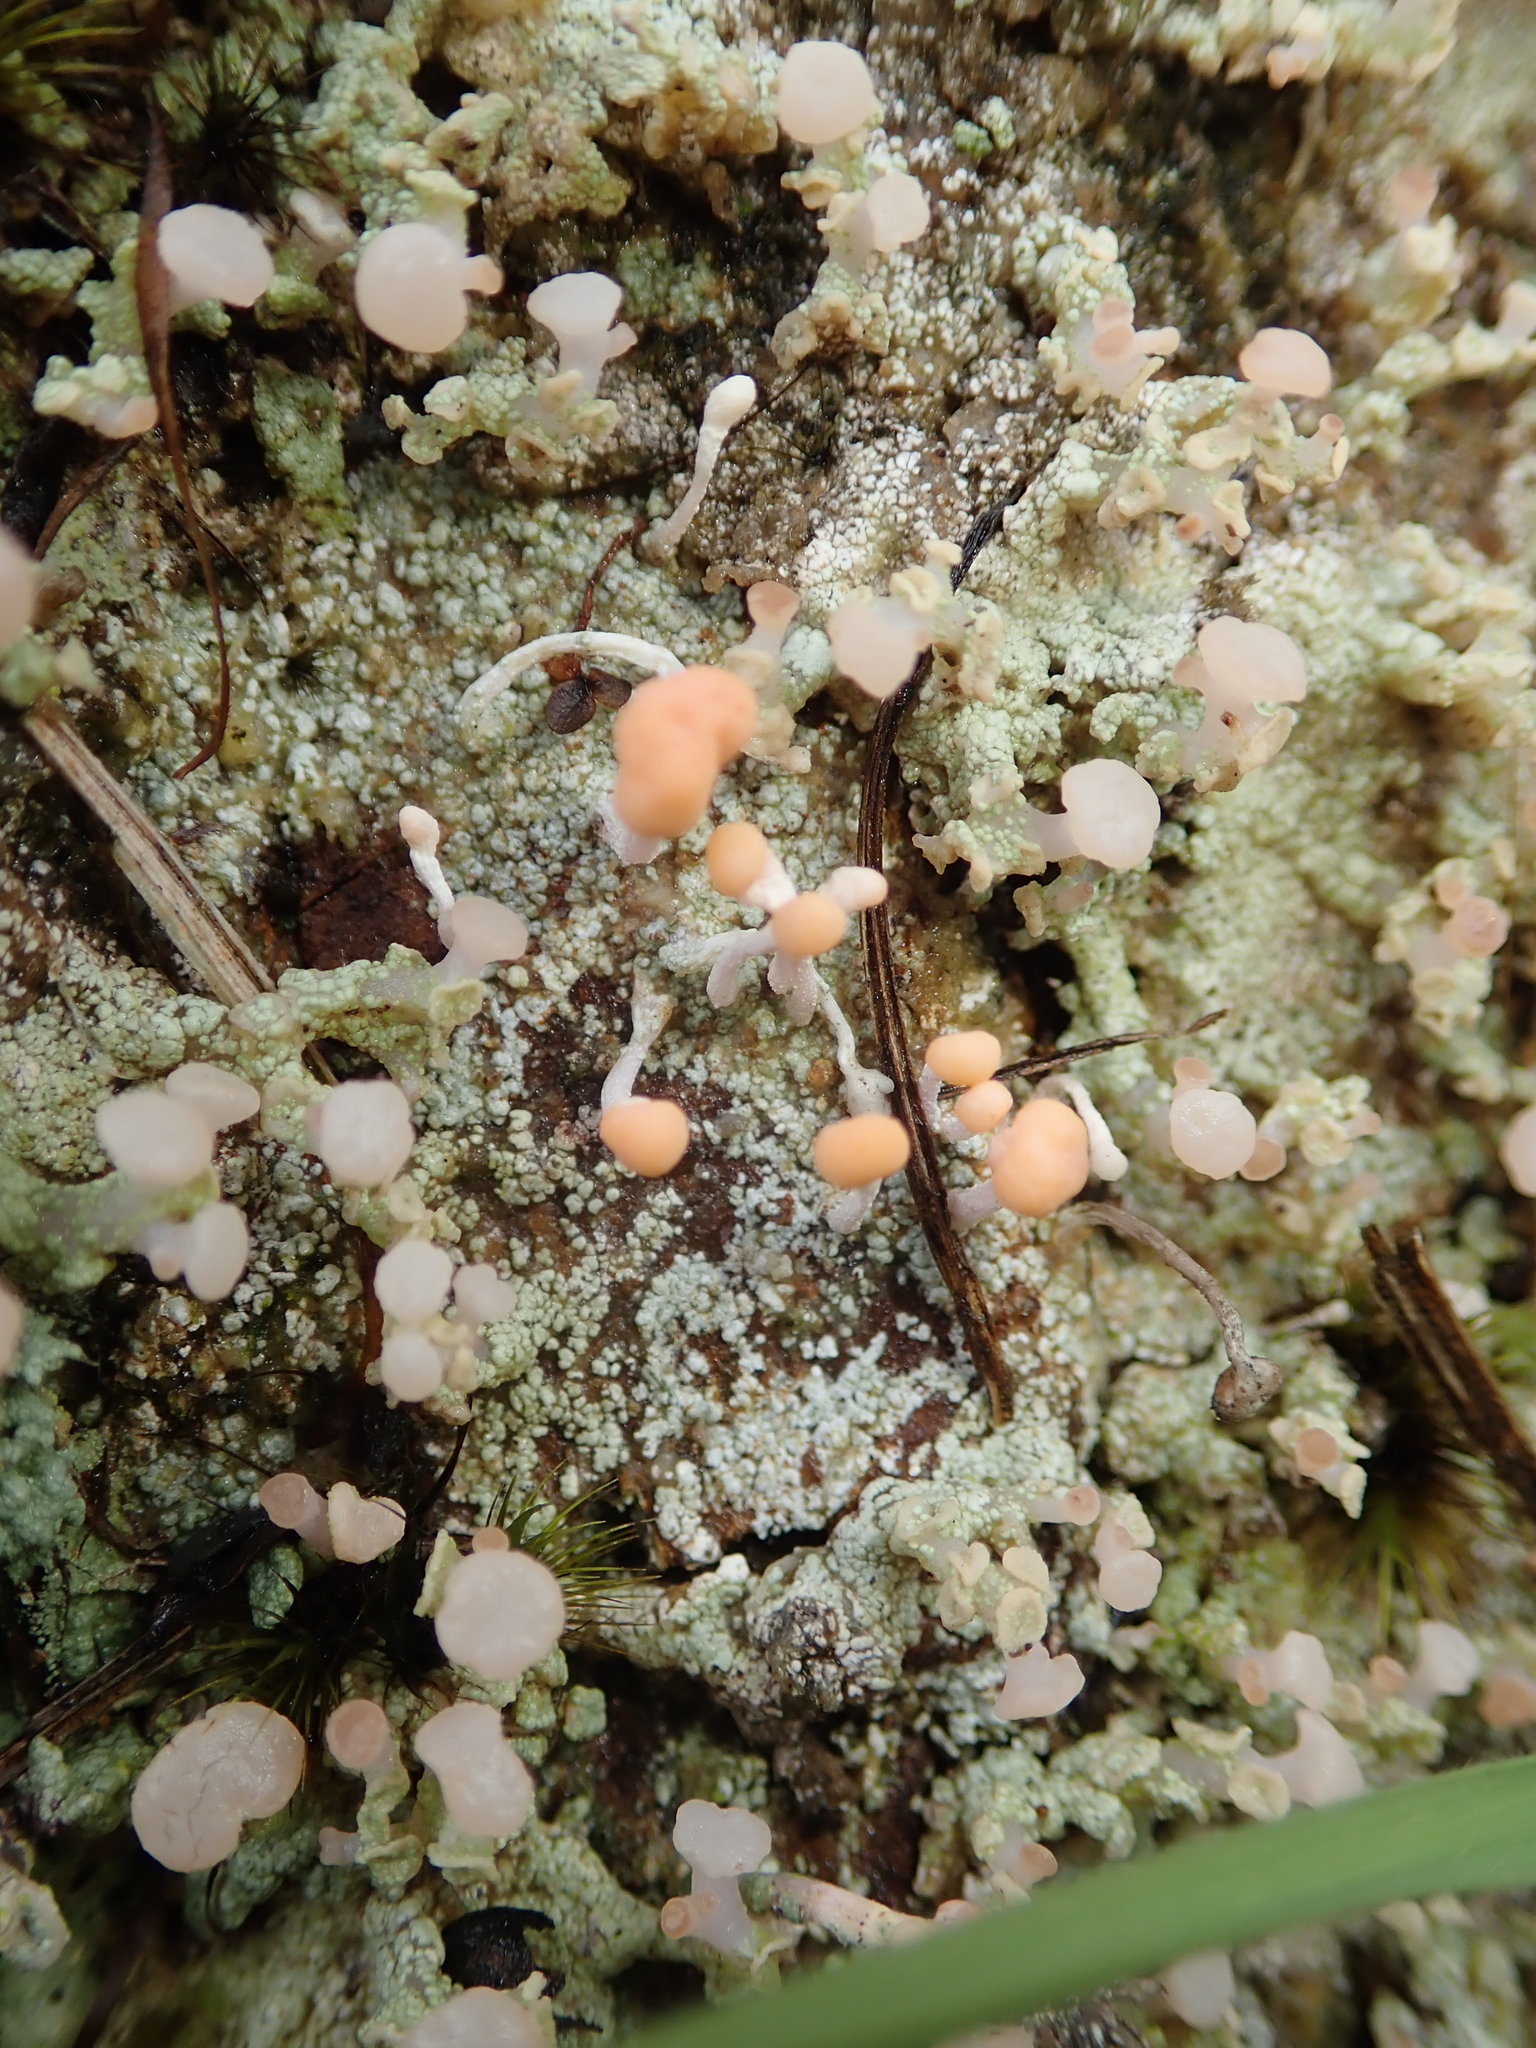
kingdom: Fungi
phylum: Ascomycota
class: Lecanoromycetes
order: Pertusariales
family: Icmadophilaceae
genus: Dibaeis
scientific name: Dibaeis arcuata
